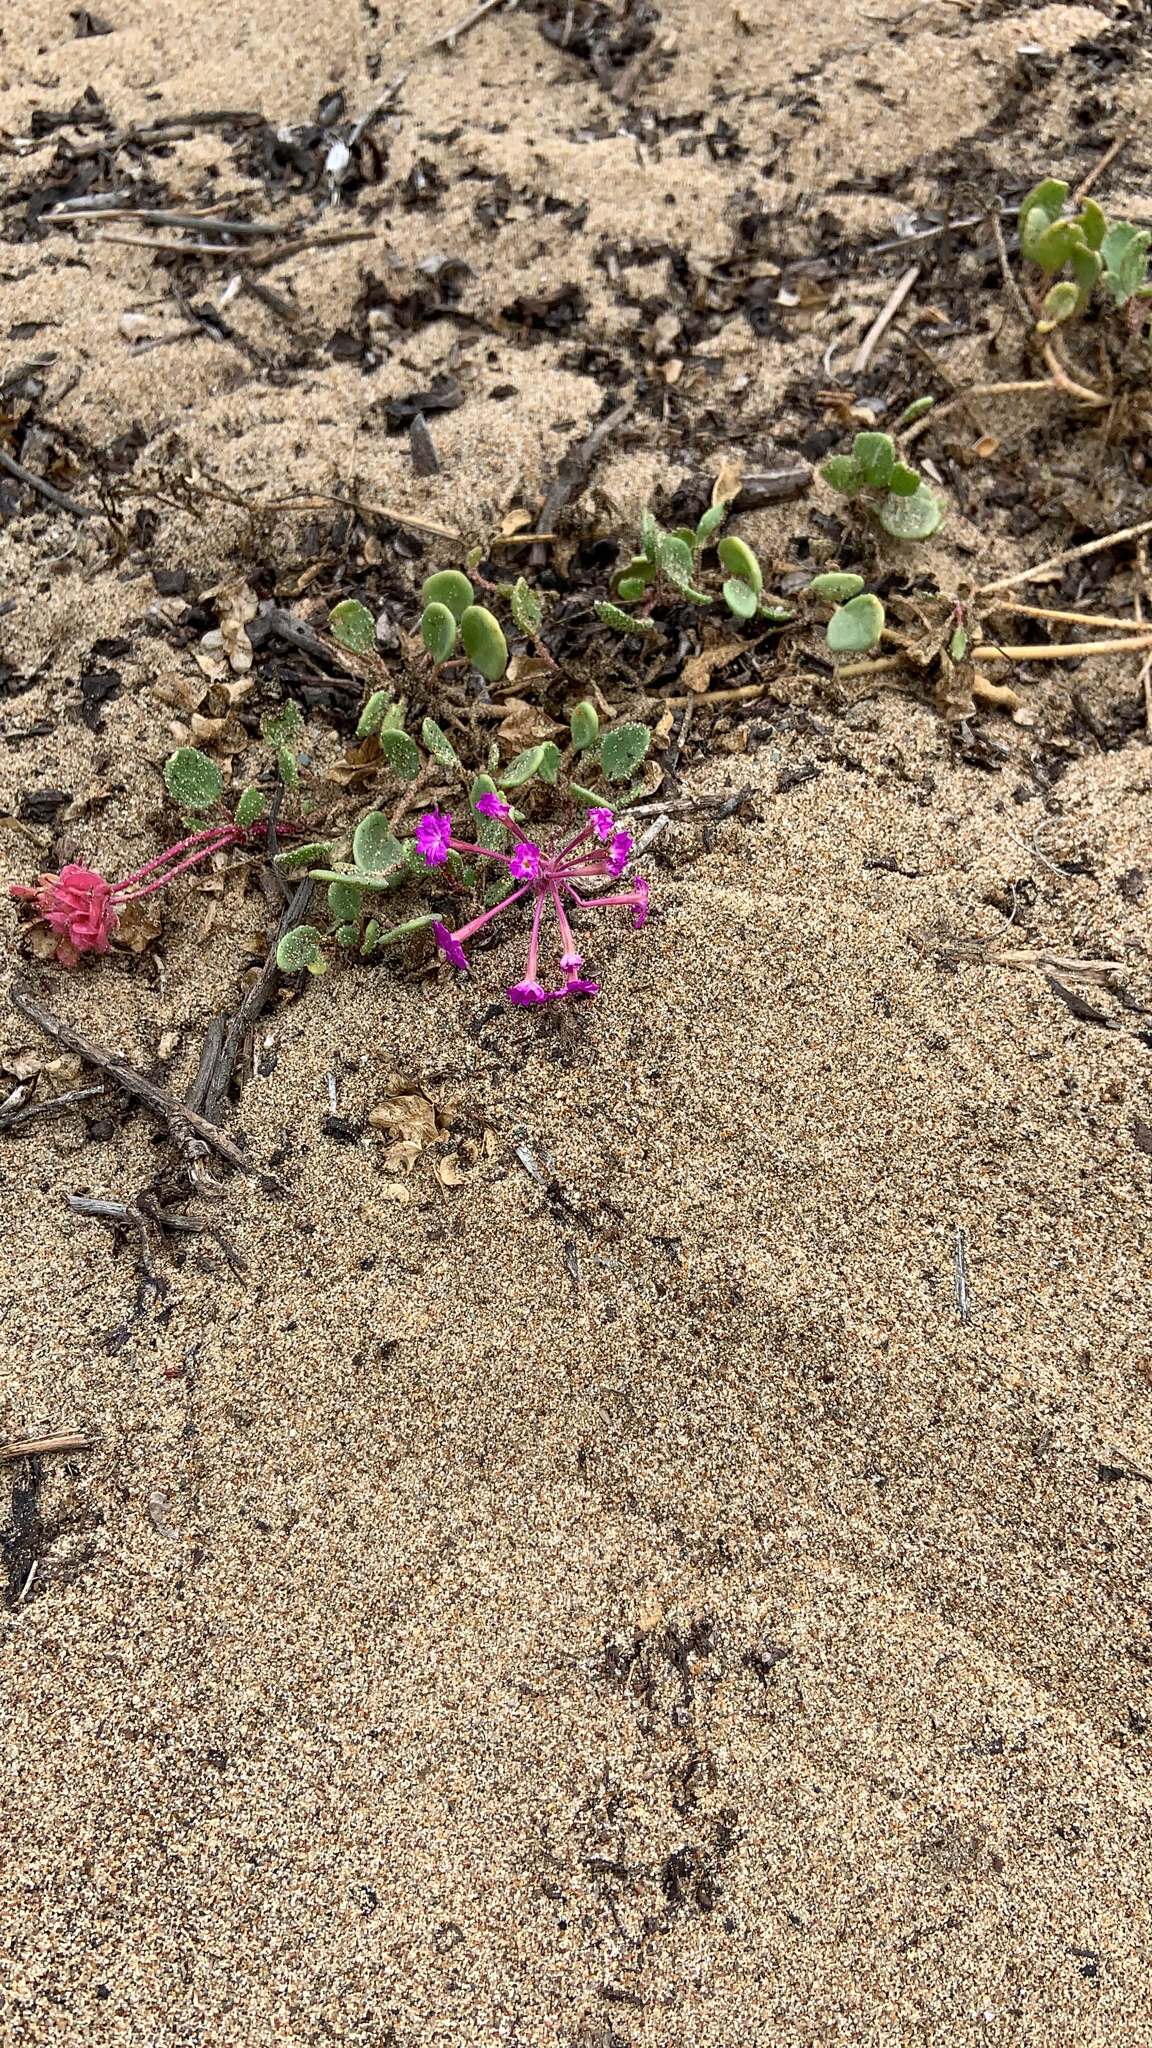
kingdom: Plantae
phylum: Tracheophyta
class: Magnoliopsida
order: Caryophyllales
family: Nyctaginaceae
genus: Abronia
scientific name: Abronia umbellata
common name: Sand-verbena
